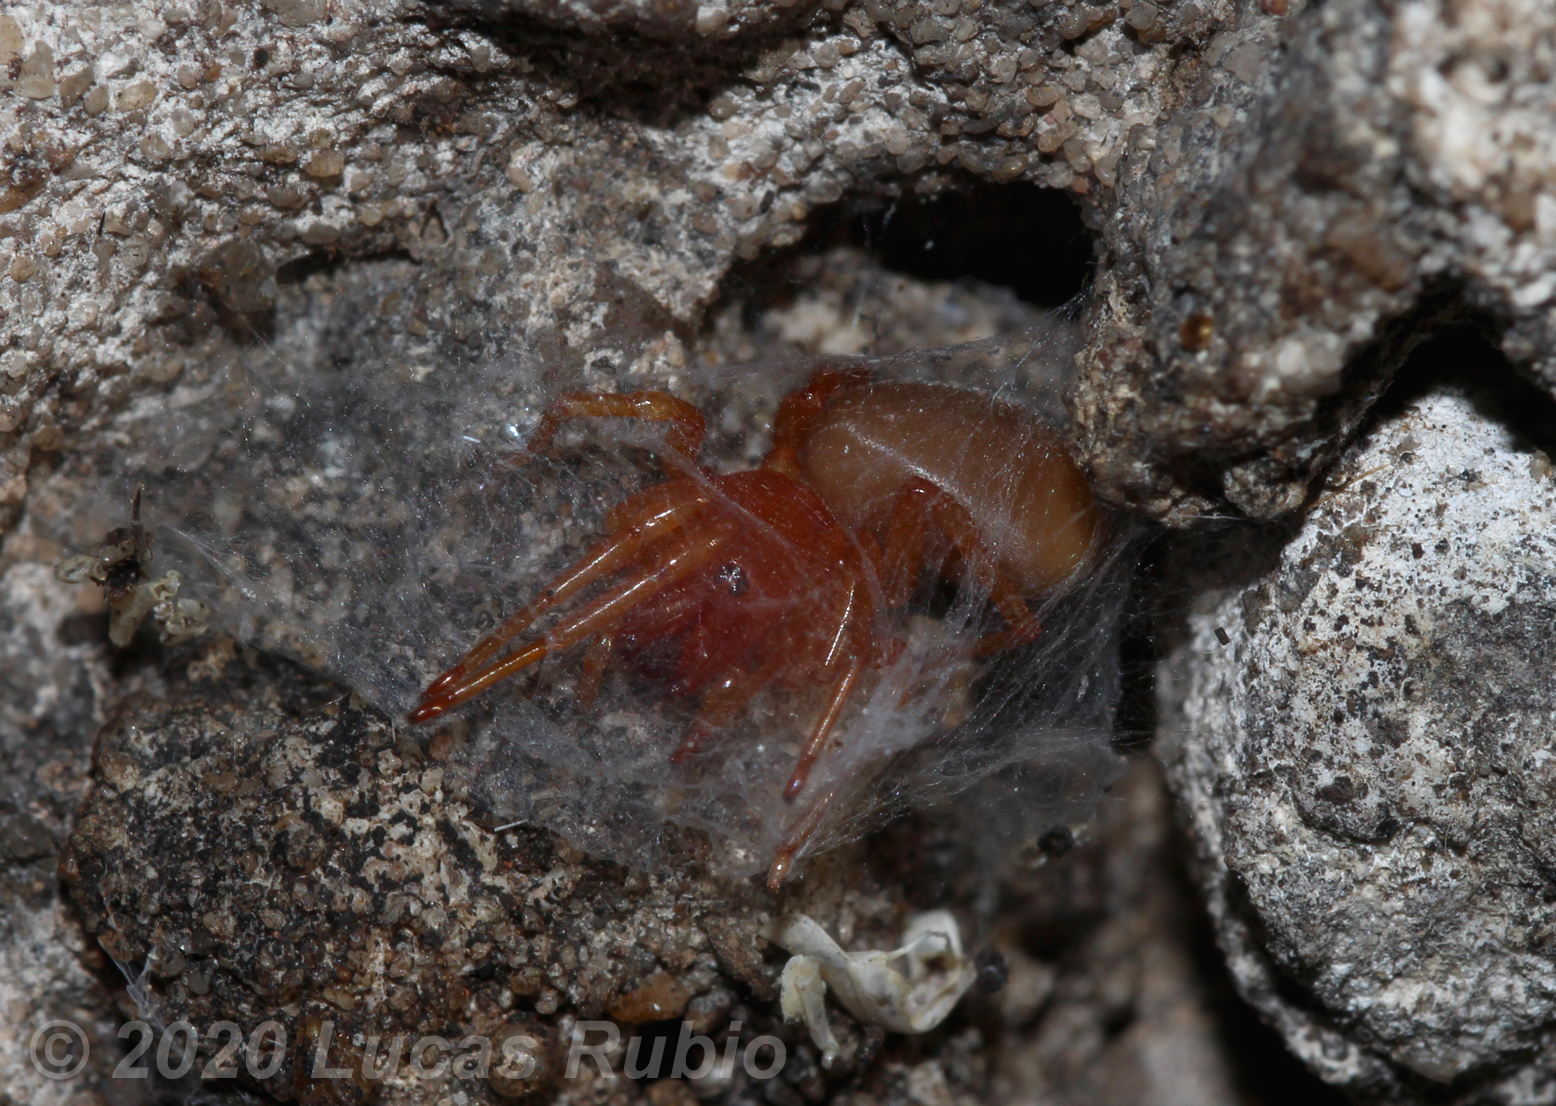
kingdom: Animalia
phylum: Arthropoda
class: Arachnida
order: Araneae
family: Dysderidae
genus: Dysdera
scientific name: Dysdera crocata
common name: Woodlouse spider
